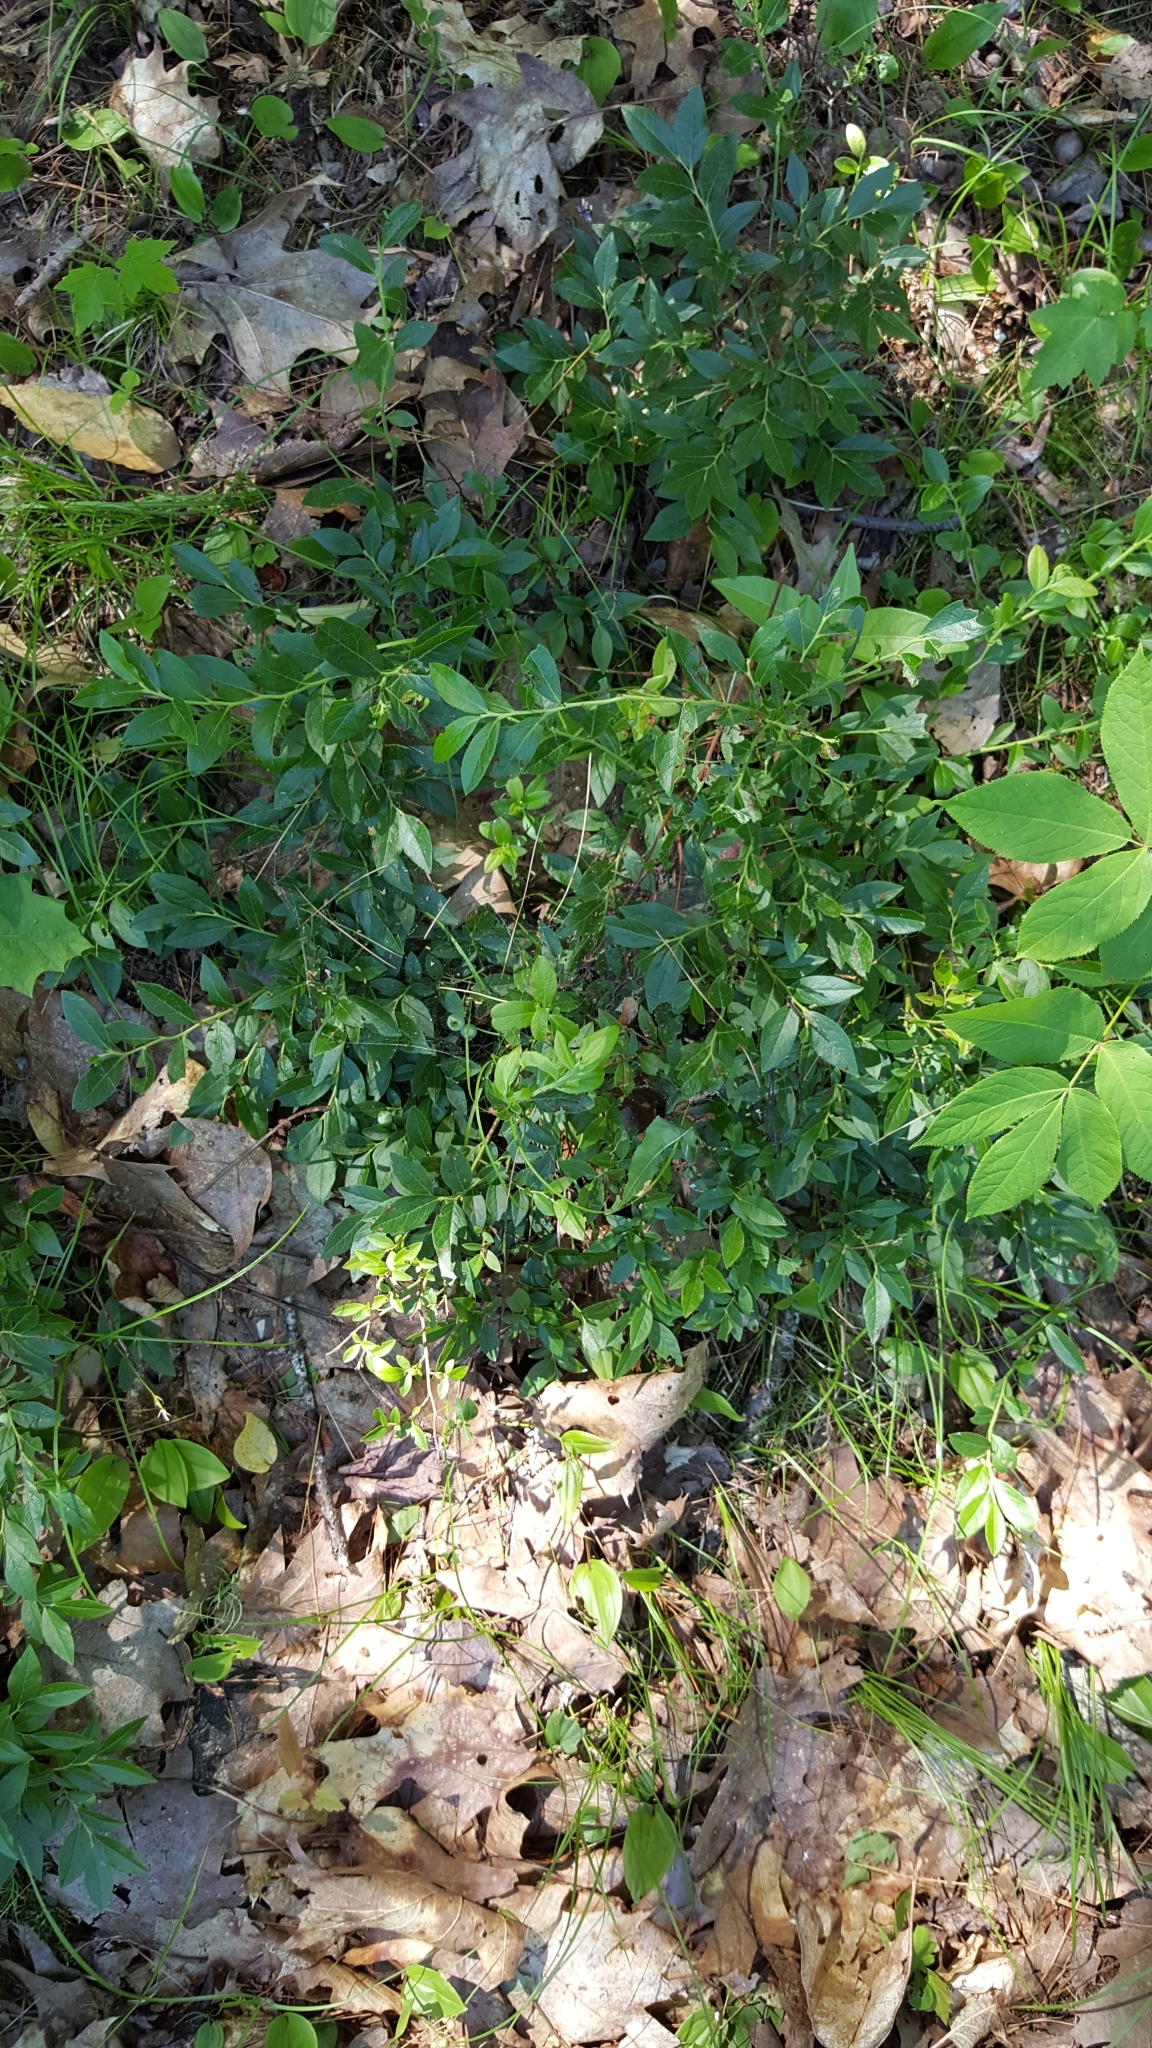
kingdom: Plantae
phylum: Tracheophyta
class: Magnoliopsida
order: Ericales
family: Ericaceae
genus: Vaccinium
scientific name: Vaccinium angustifolium
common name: Early lowbush blueberry
